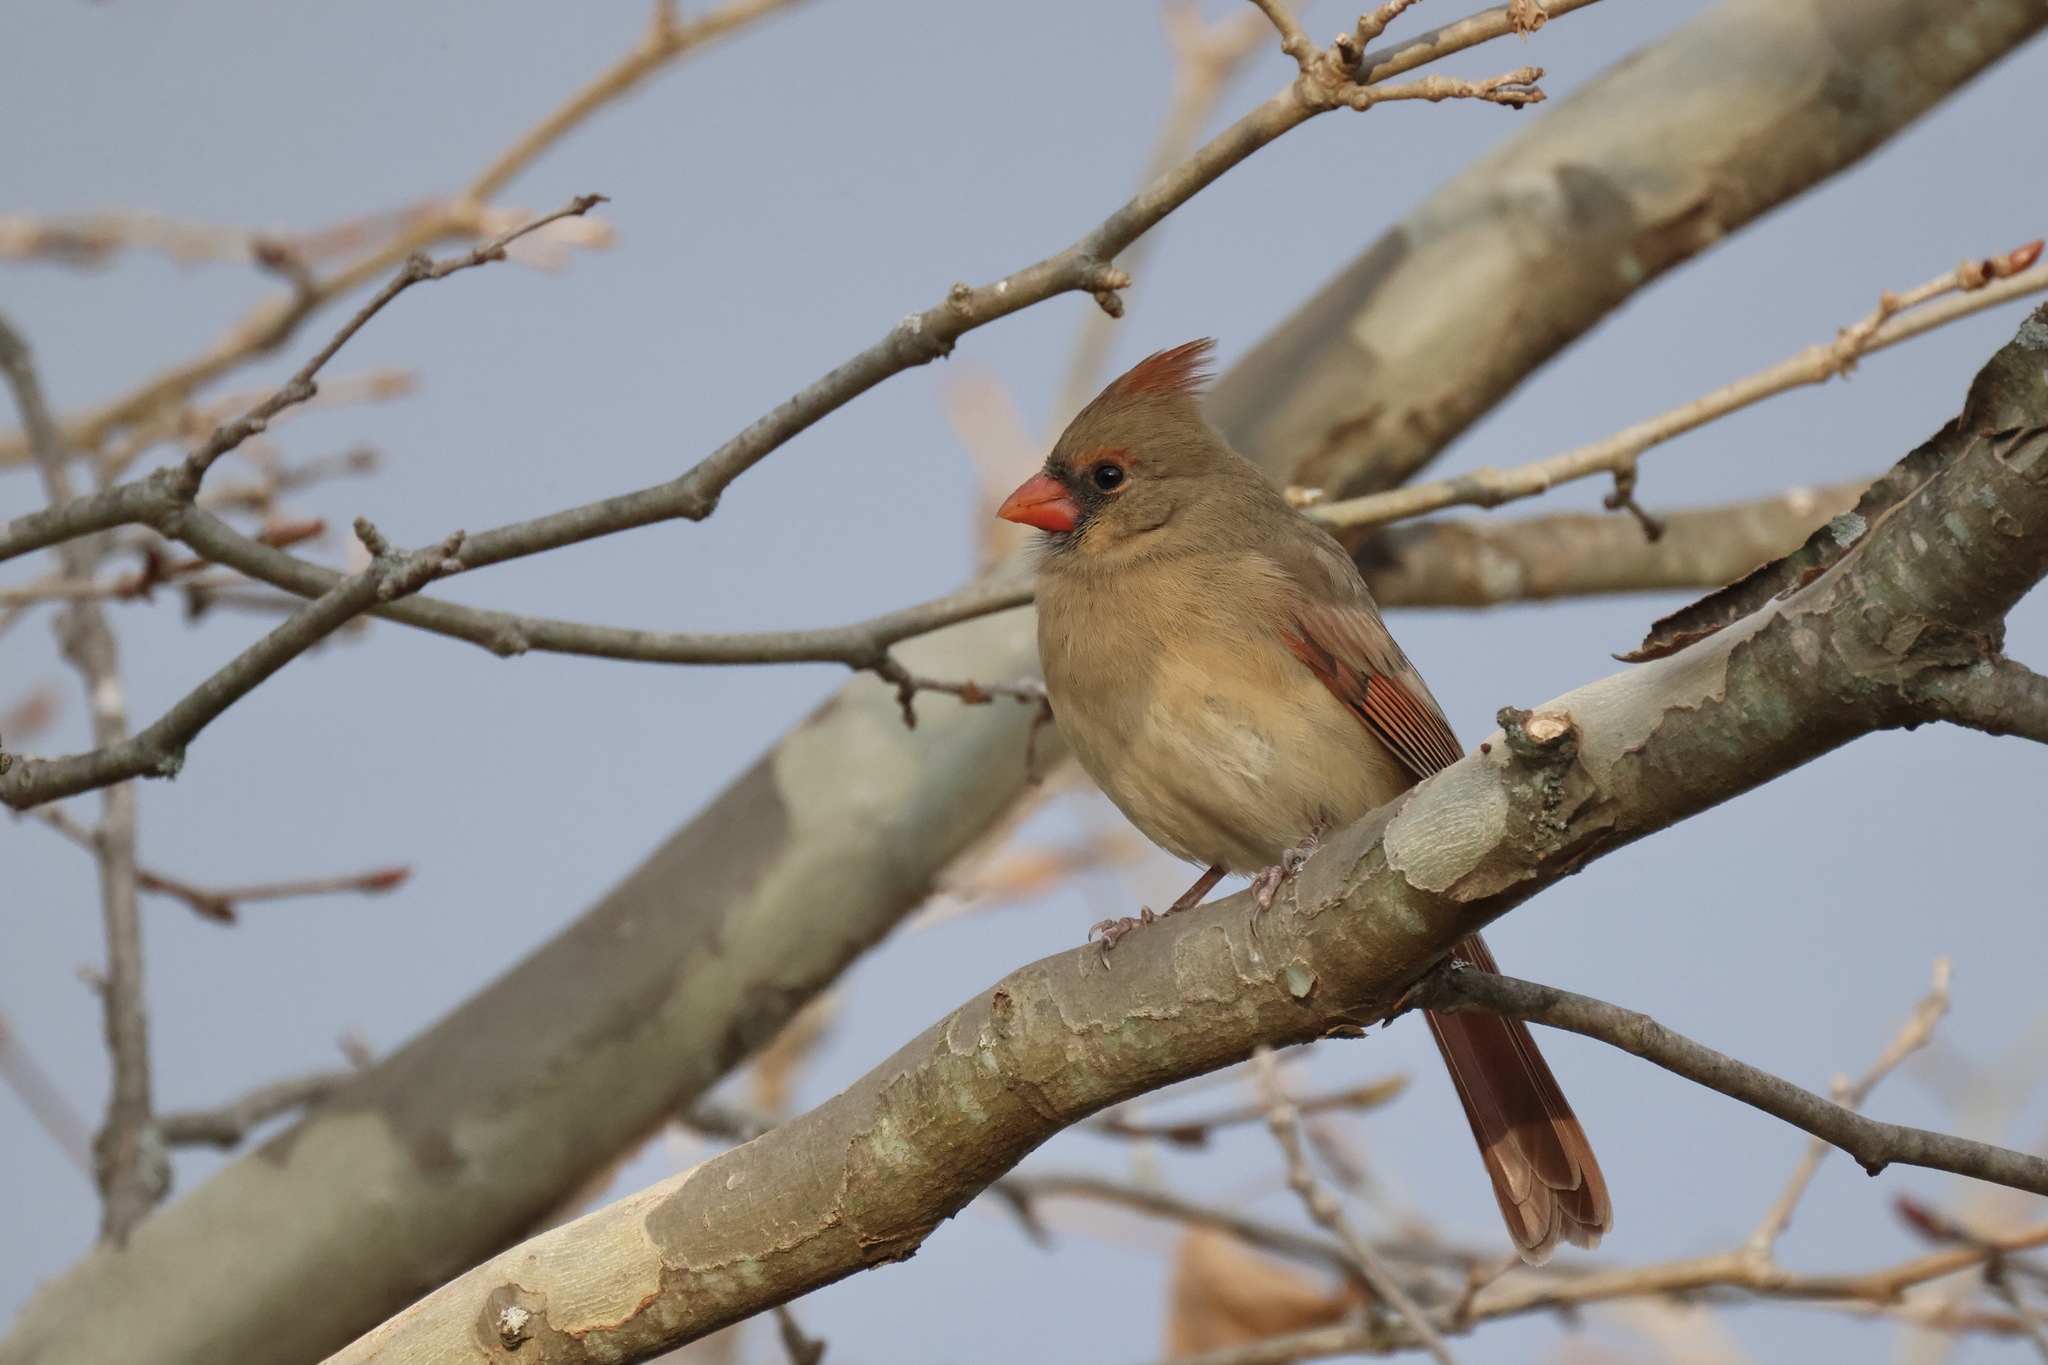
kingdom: Animalia
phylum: Chordata
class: Aves
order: Passeriformes
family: Cardinalidae
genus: Cardinalis
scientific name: Cardinalis cardinalis
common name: Northern cardinal
